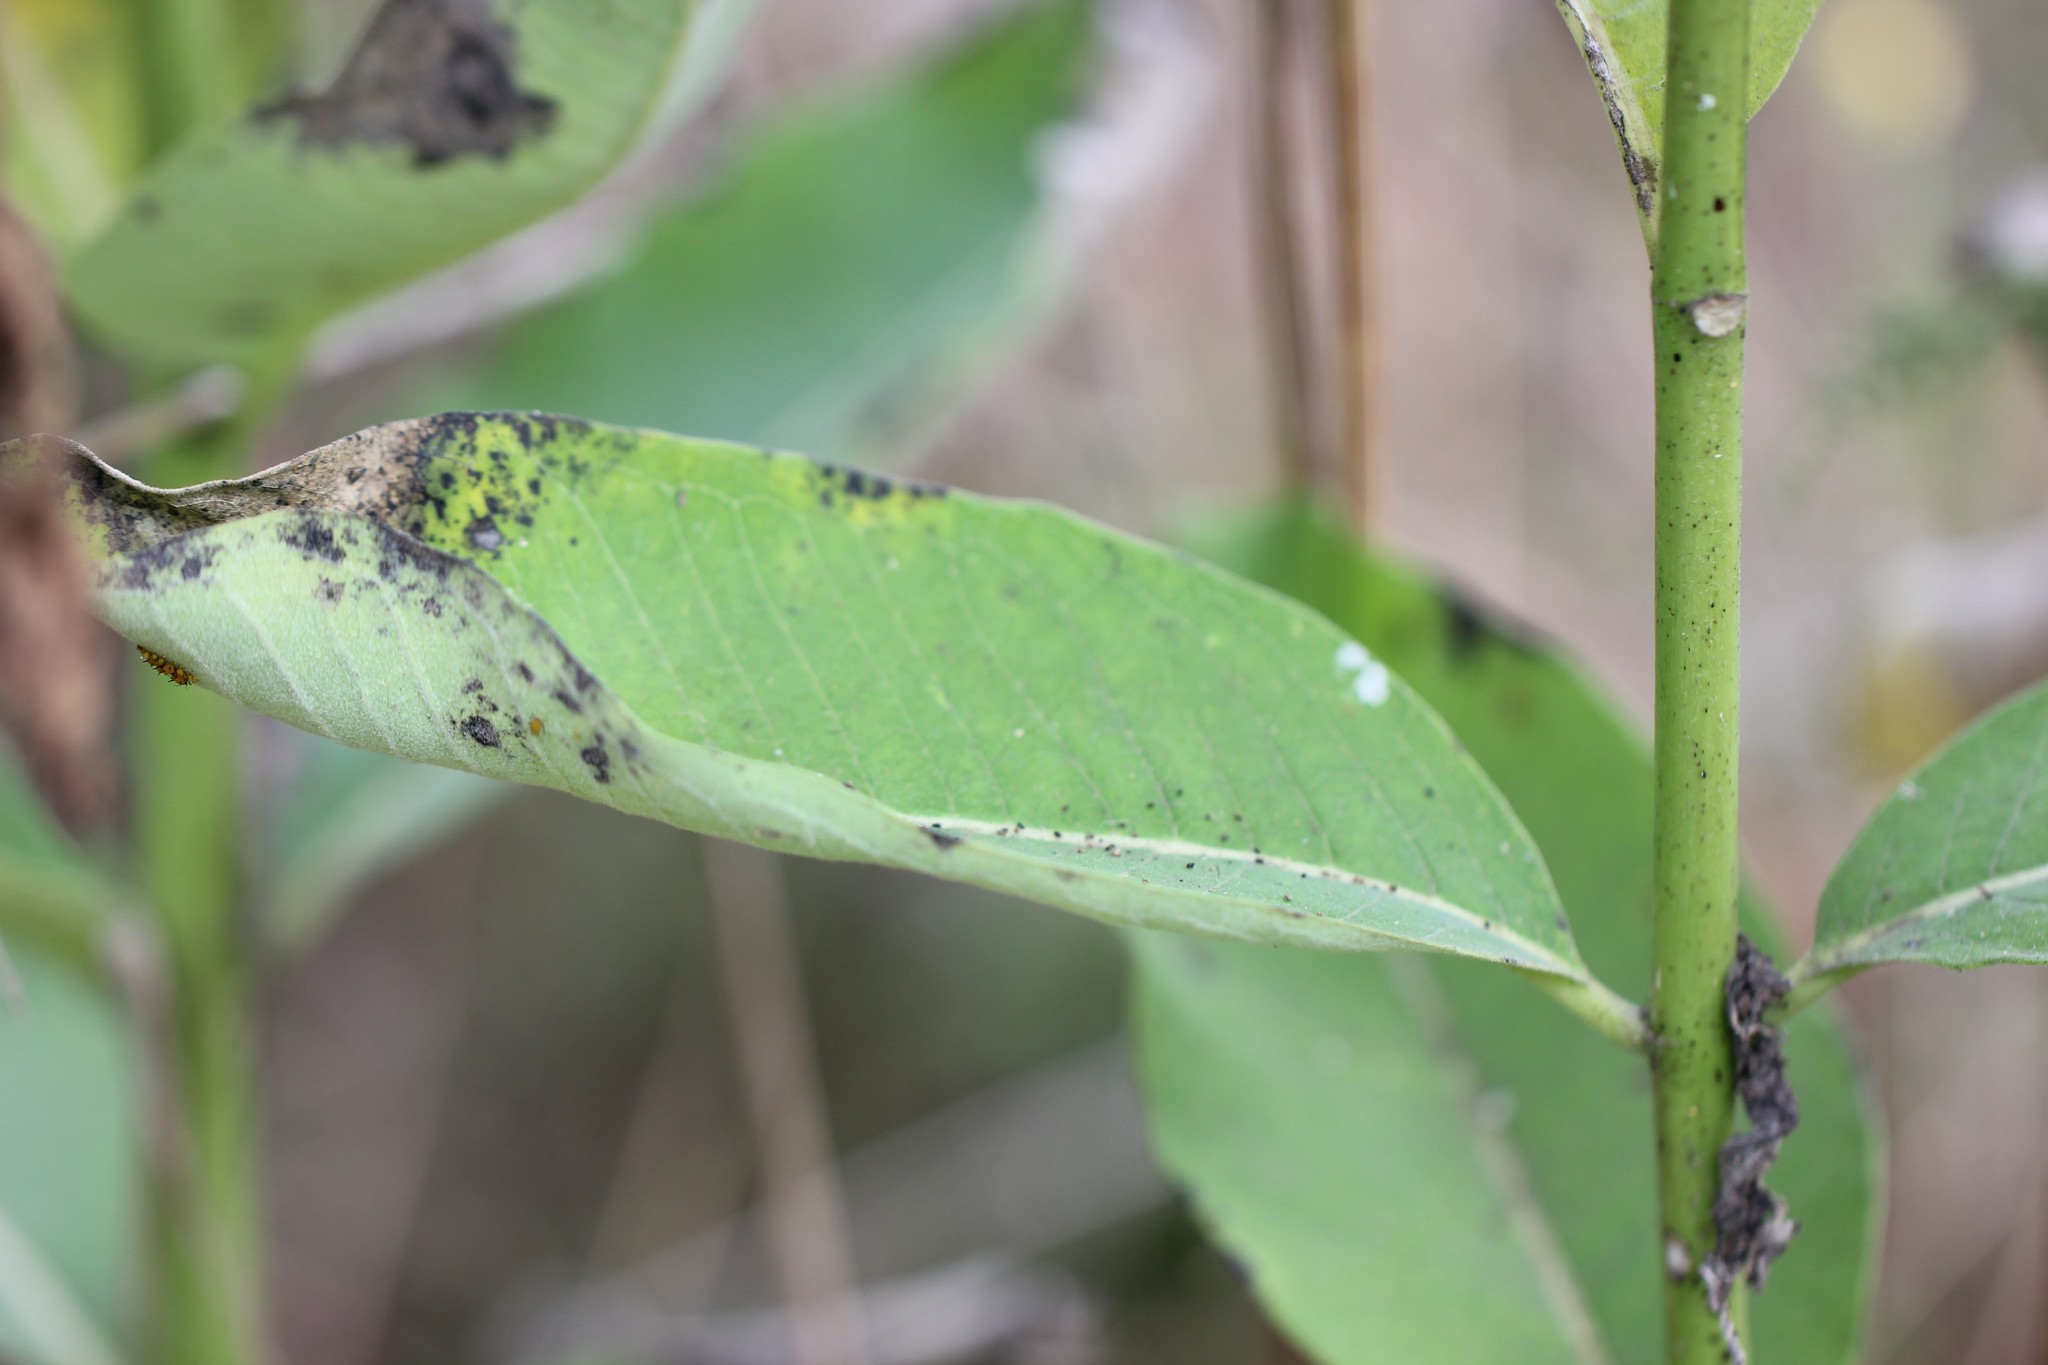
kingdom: Plantae
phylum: Tracheophyta
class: Magnoliopsida
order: Gentianales
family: Apocynaceae
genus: Asclepias
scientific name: Asclepias syriaca
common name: Common milkweed
